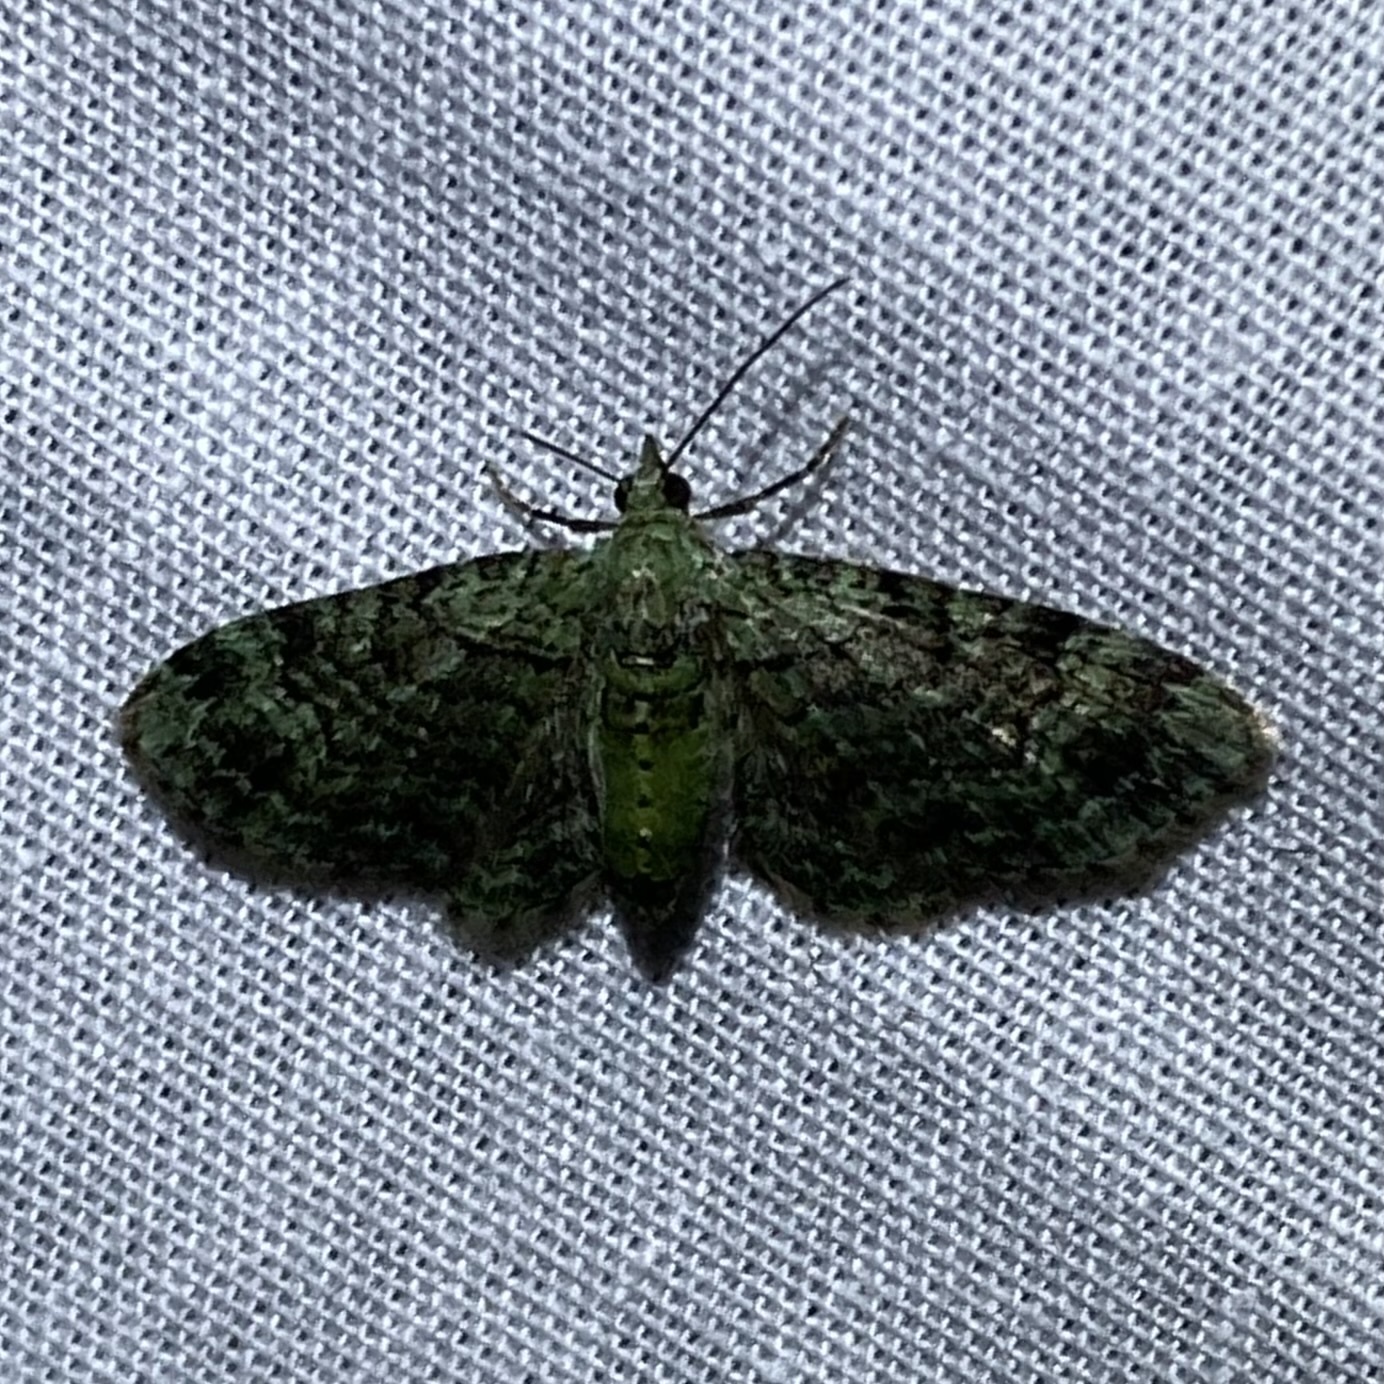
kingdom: Animalia
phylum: Arthropoda
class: Insecta
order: Lepidoptera
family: Geometridae
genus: Pasiphila
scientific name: Pasiphila rectangulata
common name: Green pug
